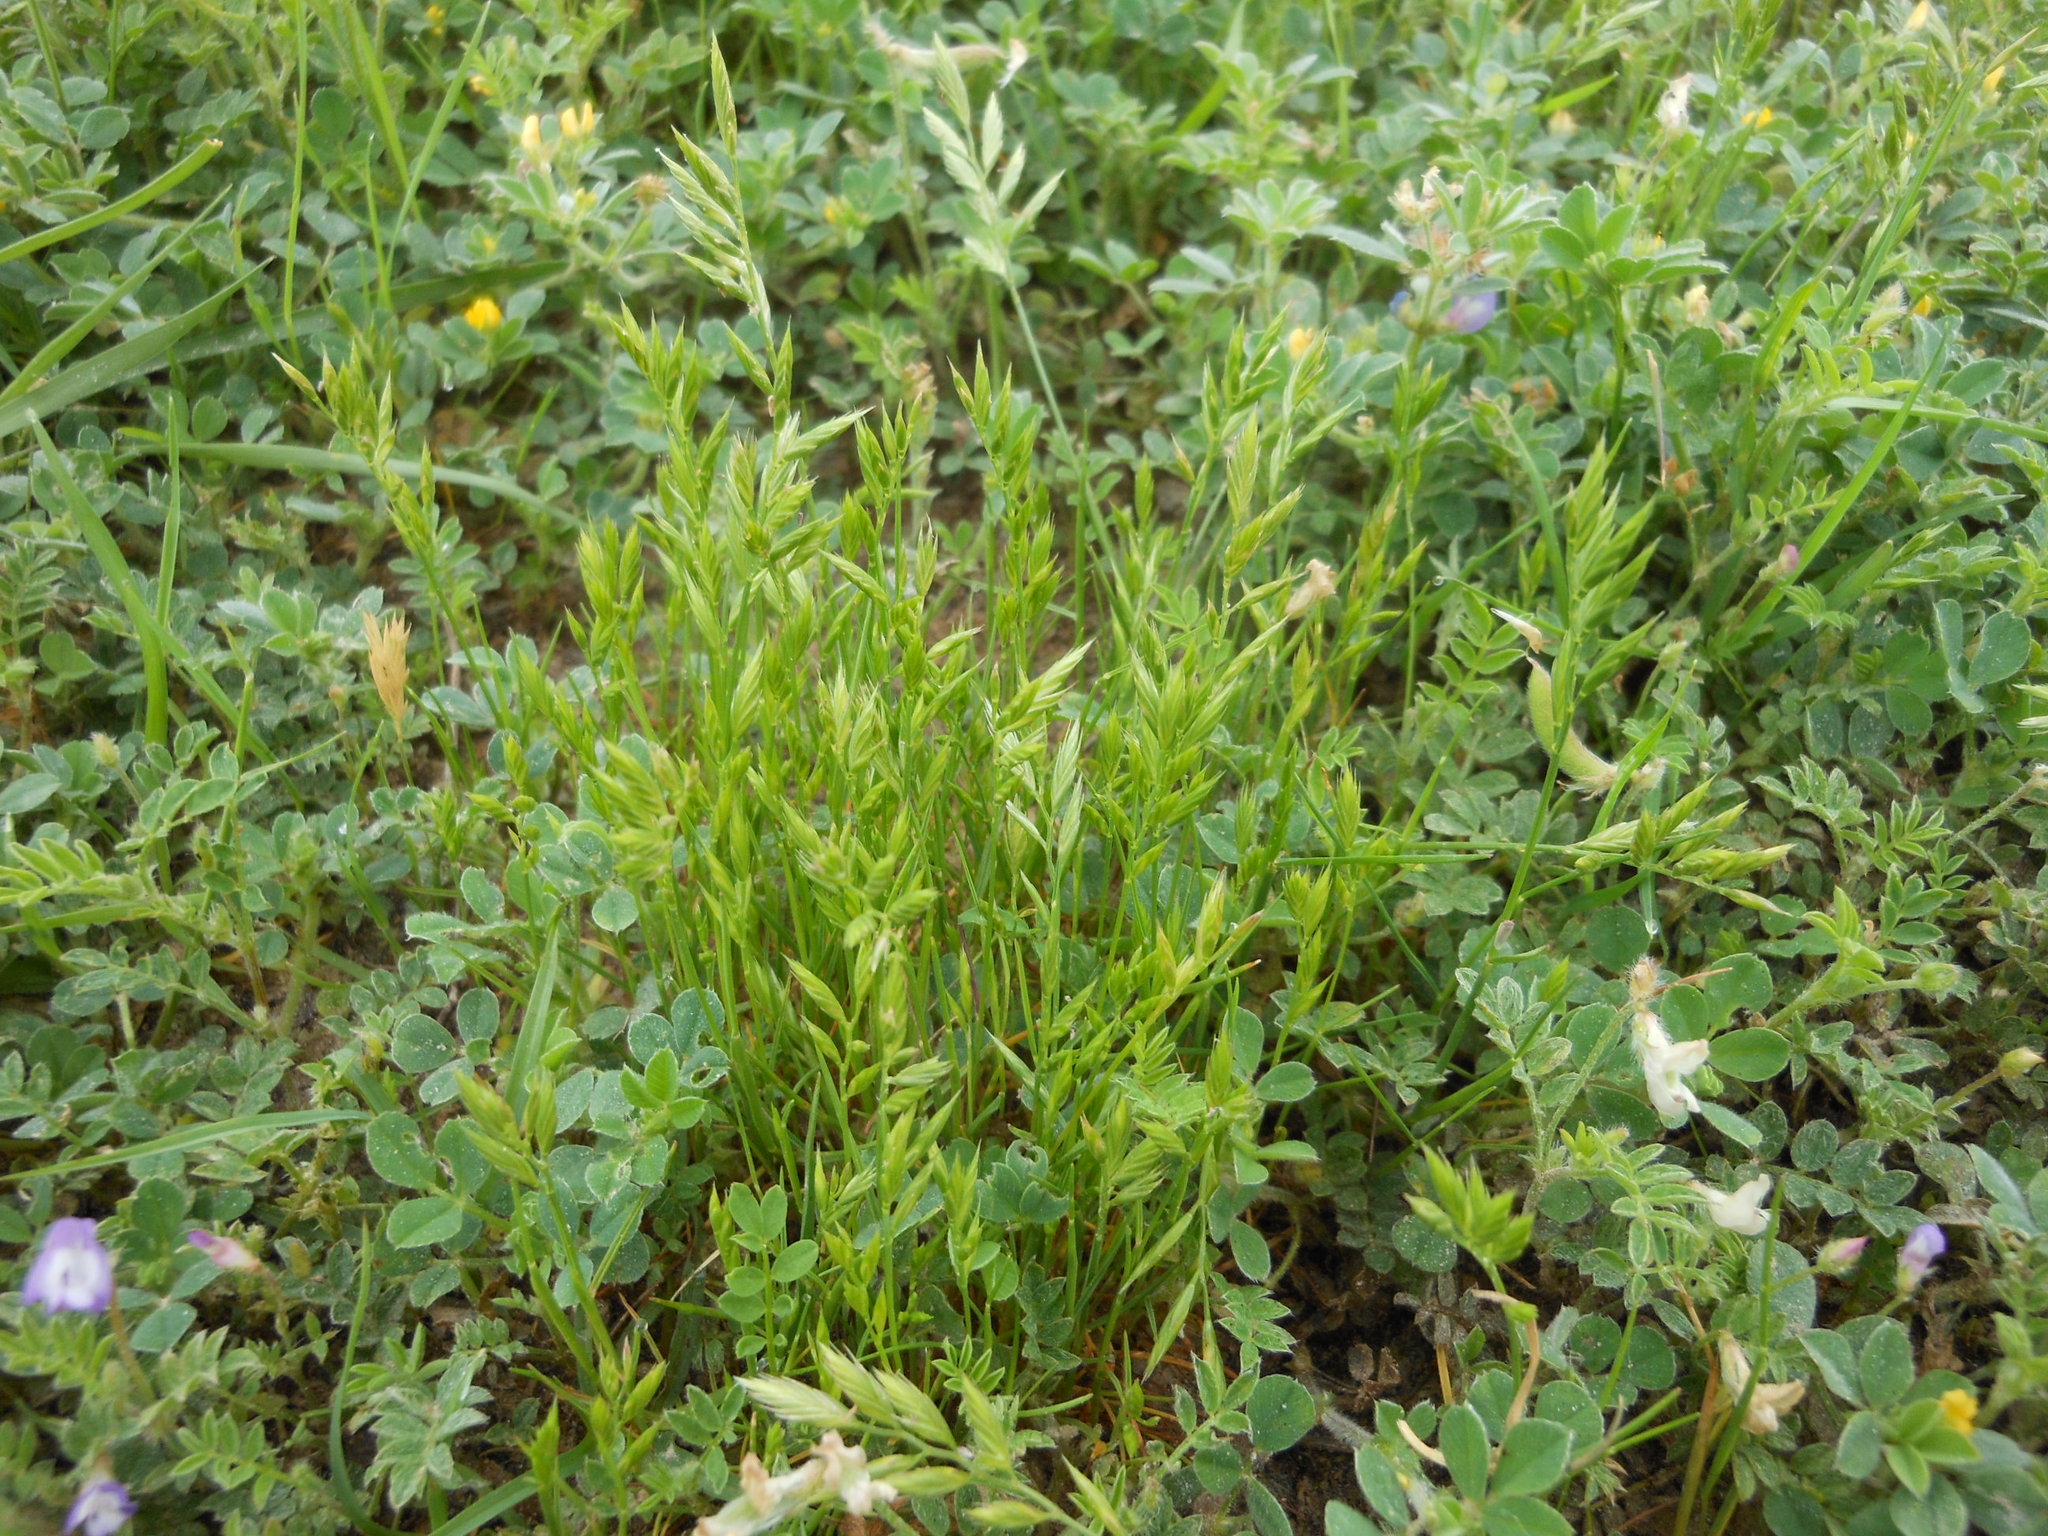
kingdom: Plantae
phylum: Tracheophyta
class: Liliopsida
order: Poales
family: Poaceae
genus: Festuca
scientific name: Festuca octoflora
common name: Sixweeks grass
